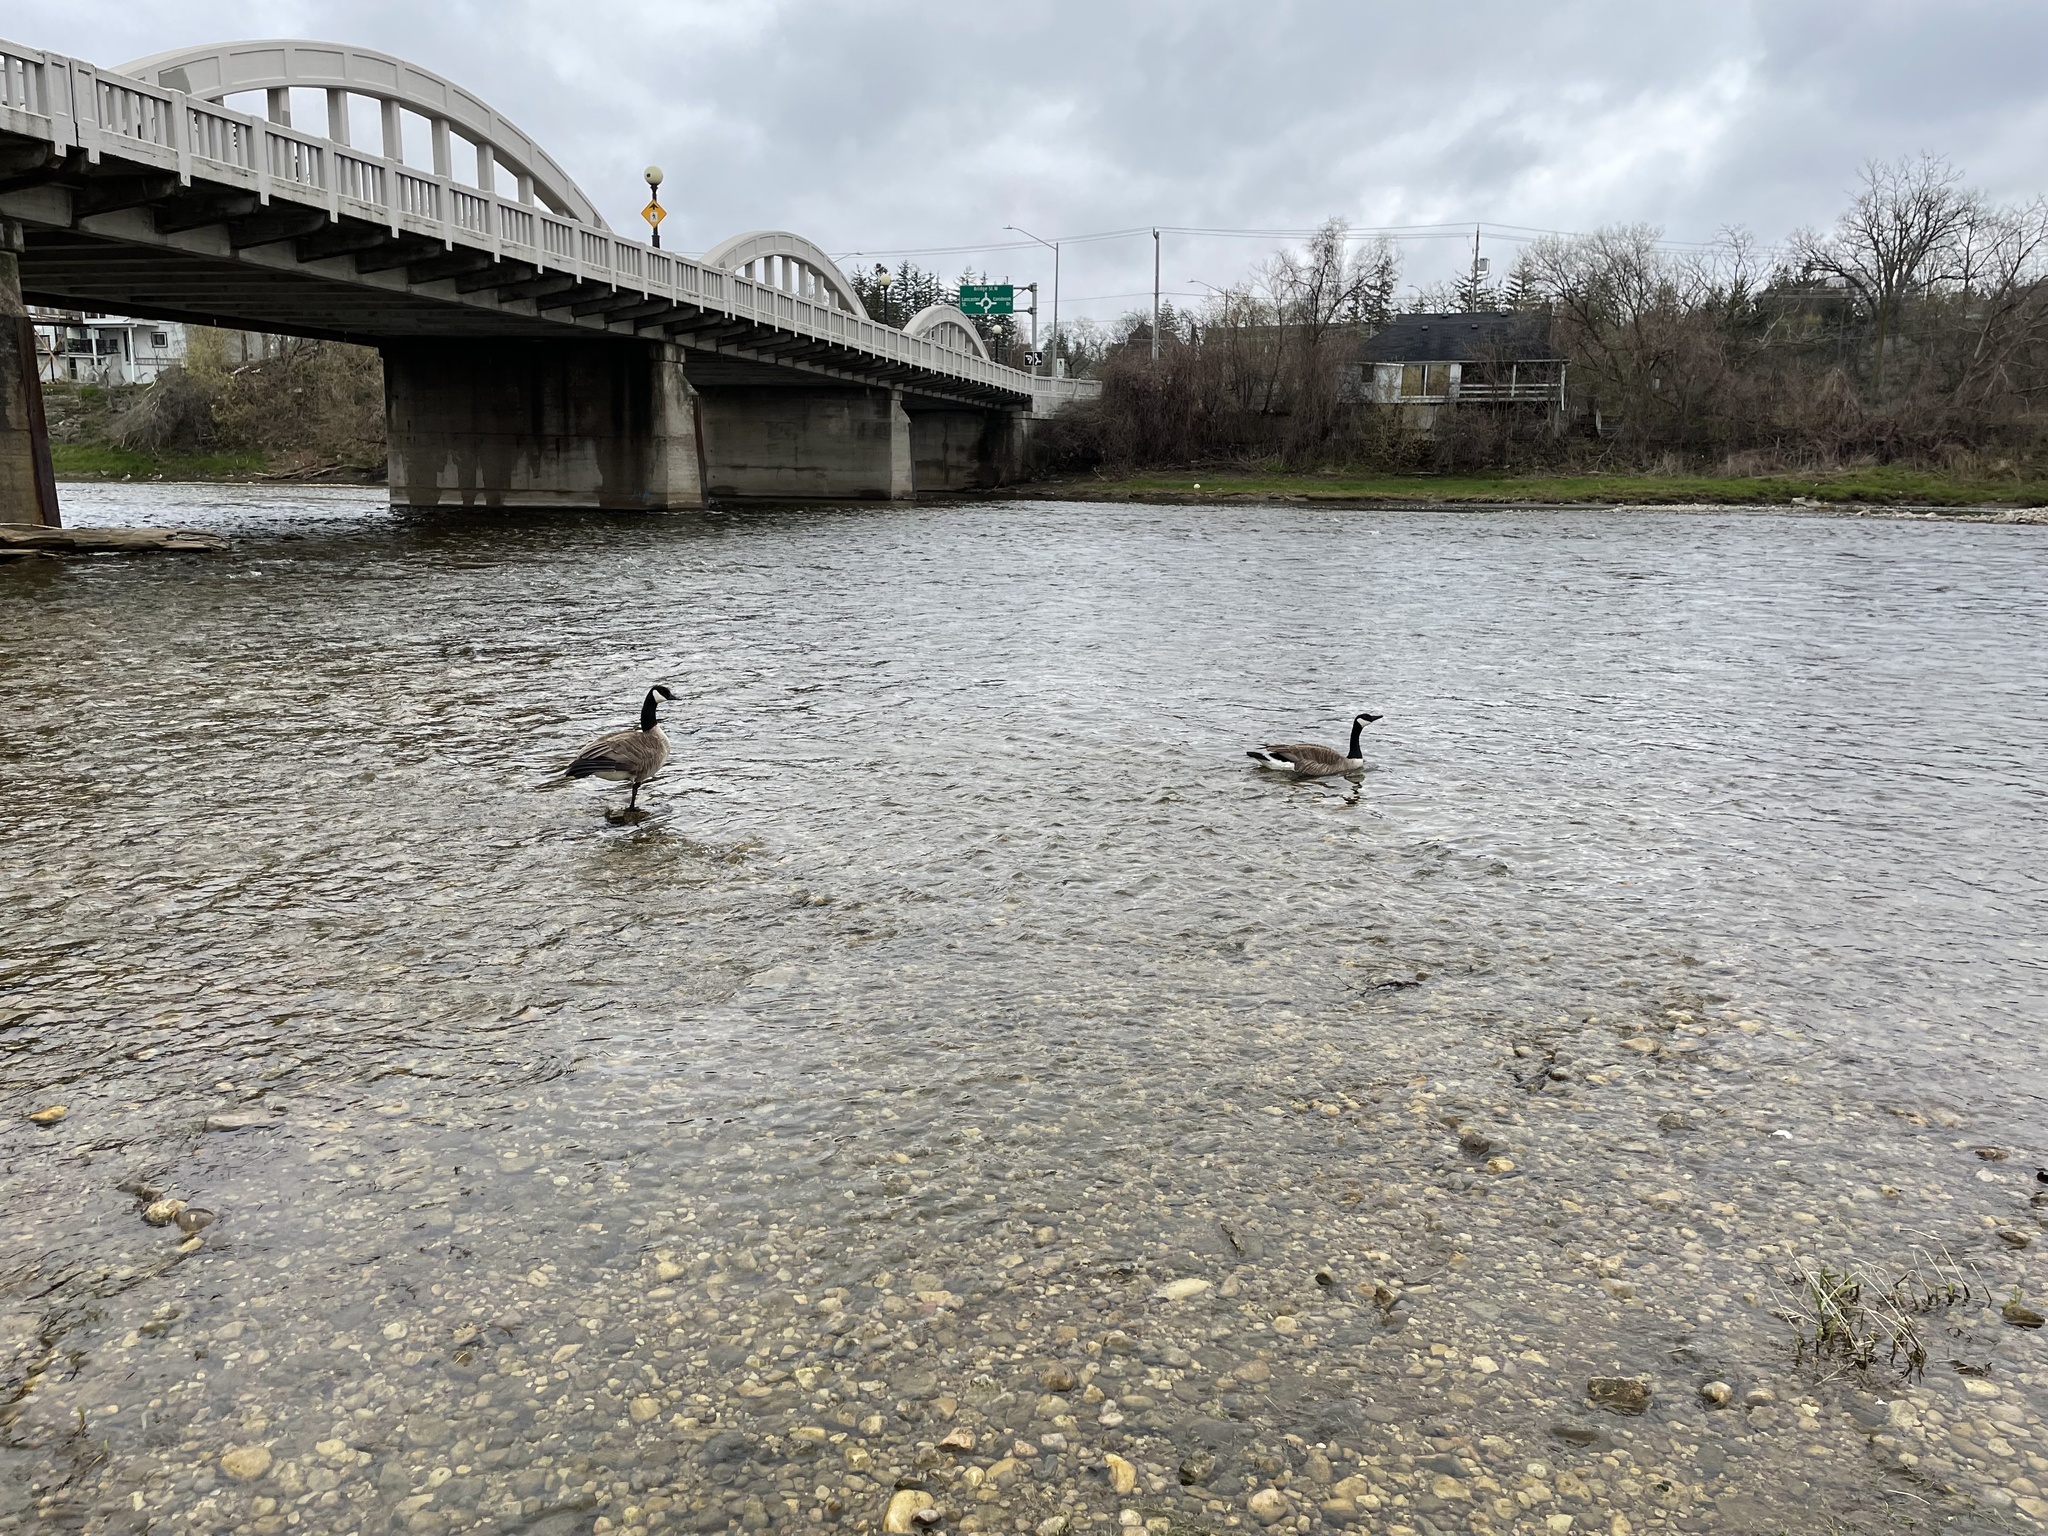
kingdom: Animalia
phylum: Chordata
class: Aves
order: Anseriformes
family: Anatidae
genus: Branta
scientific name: Branta canadensis
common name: Canada goose
